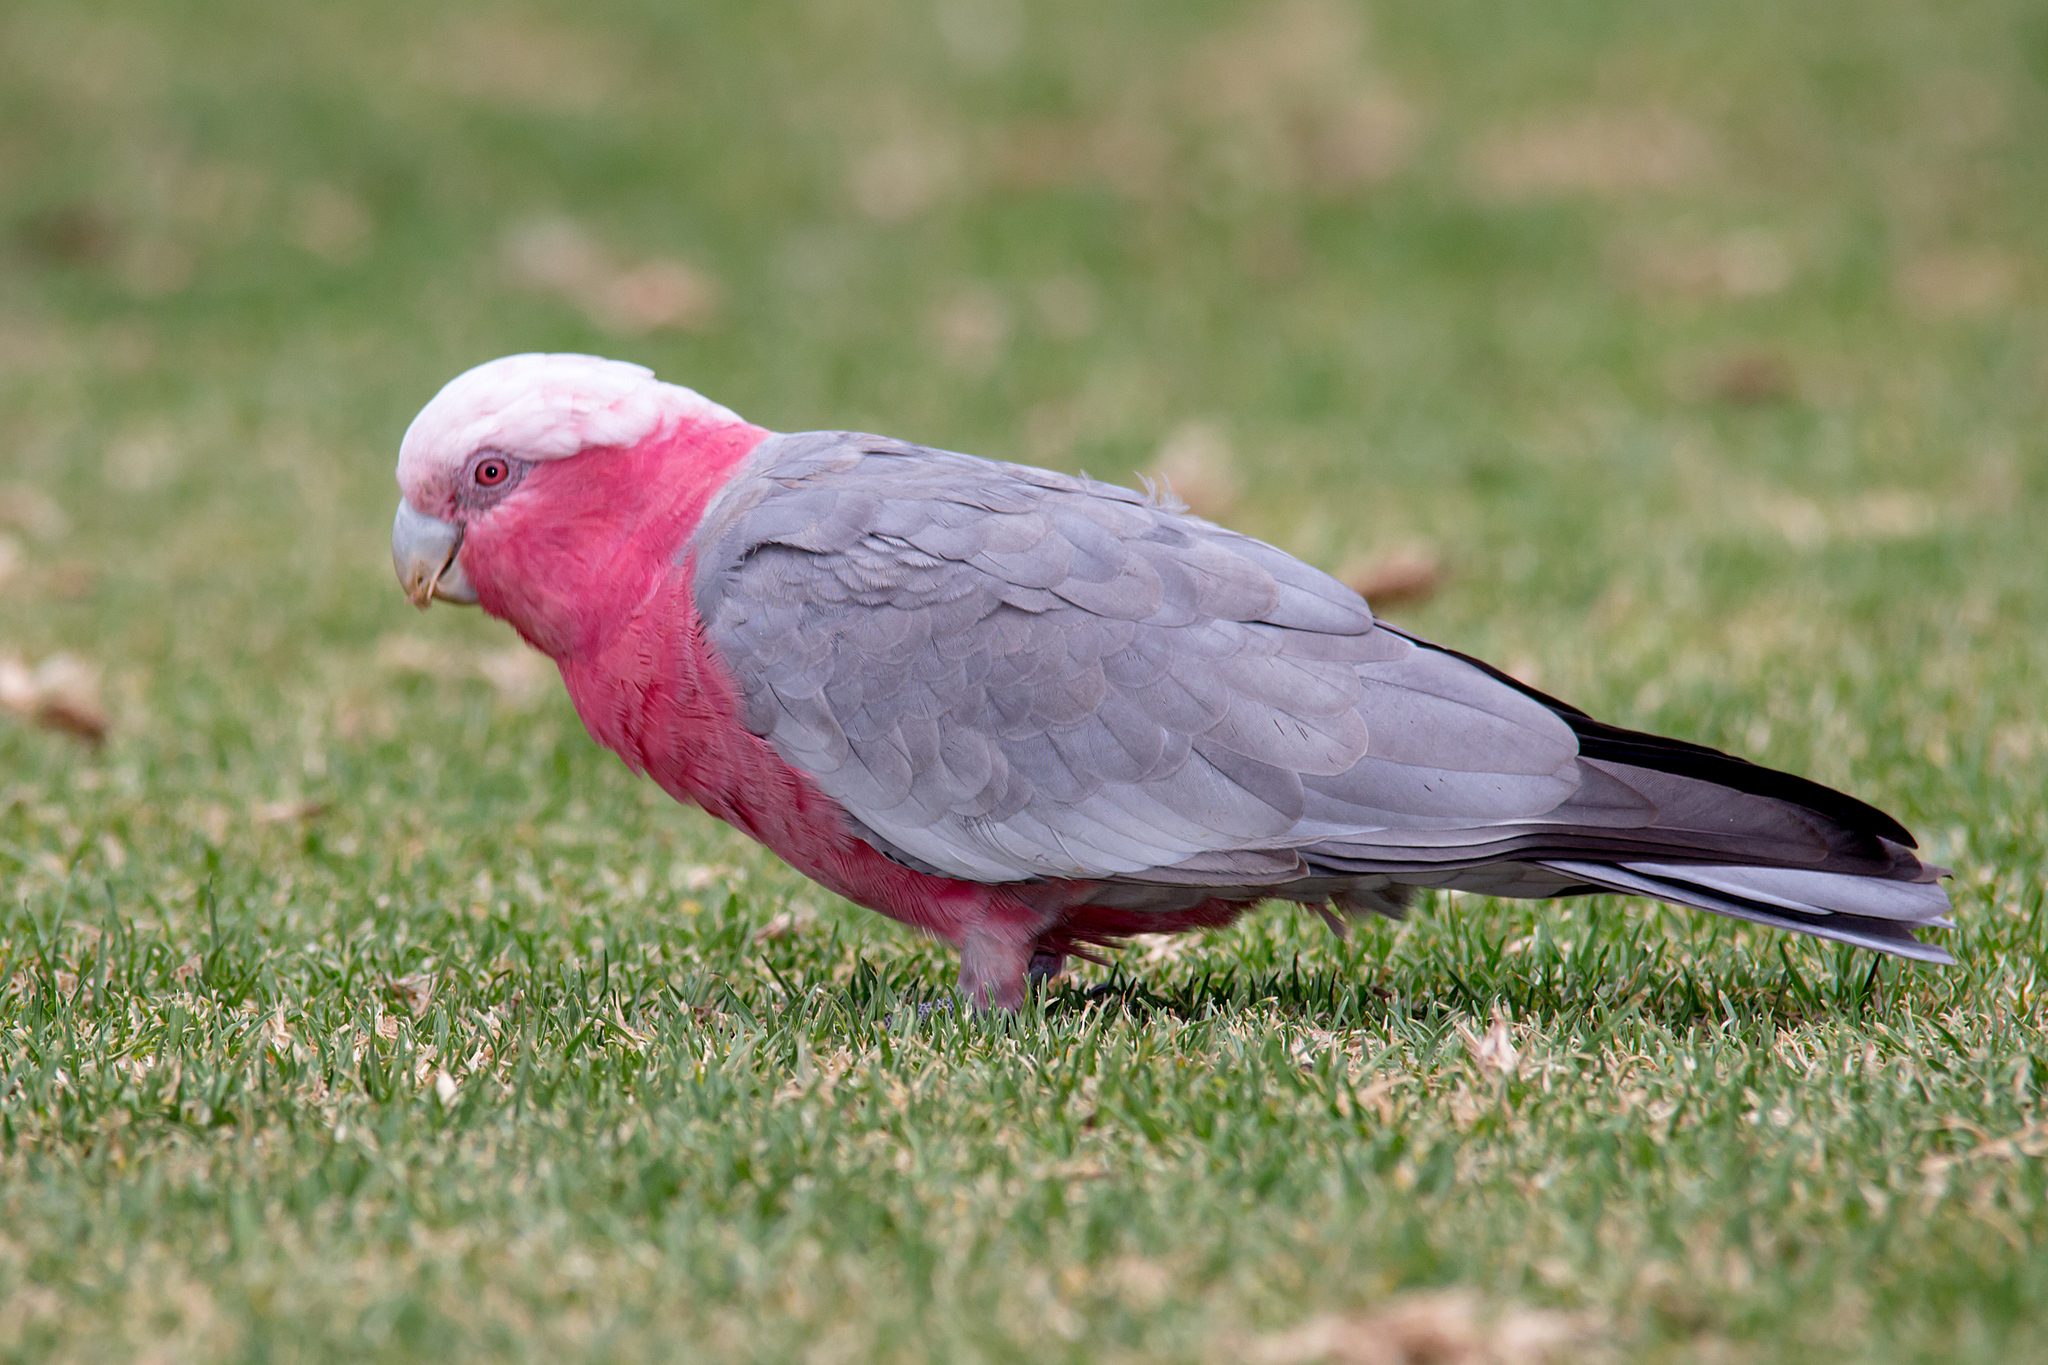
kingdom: Animalia
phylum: Chordata
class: Aves
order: Psittaciformes
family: Psittacidae
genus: Eolophus
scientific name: Eolophus roseicapilla
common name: Galah
